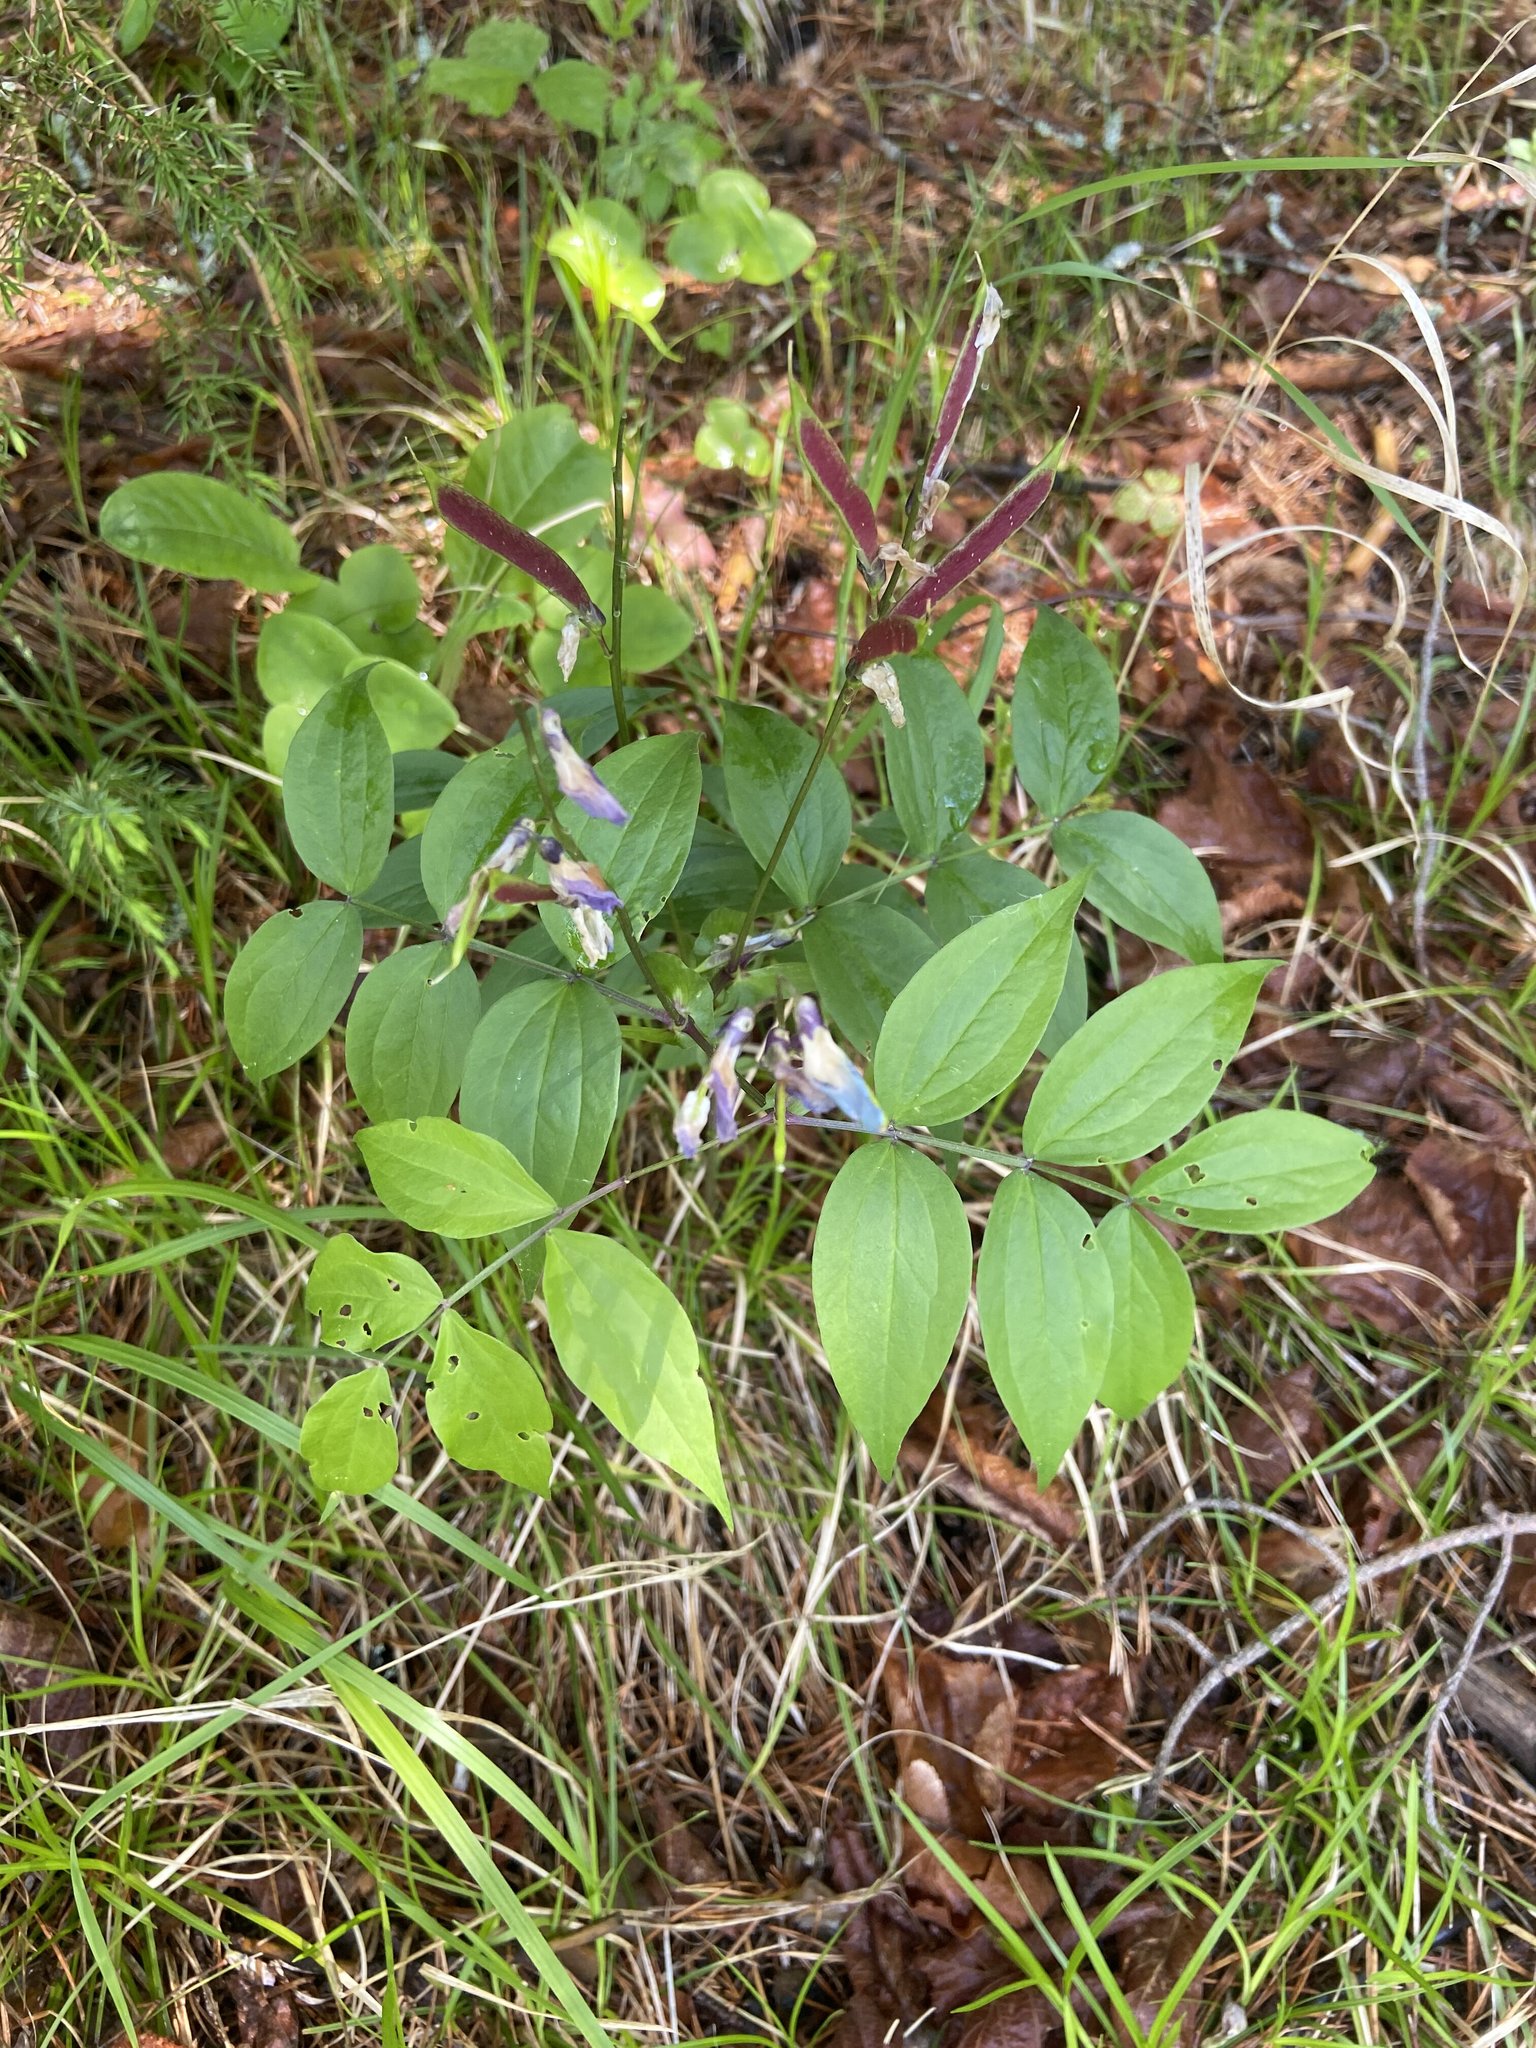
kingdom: Plantae
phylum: Tracheophyta
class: Magnoliopsida
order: Fabales
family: Fabaceae
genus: Lathyrus
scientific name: Lathyrus vernus
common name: Spring pea
